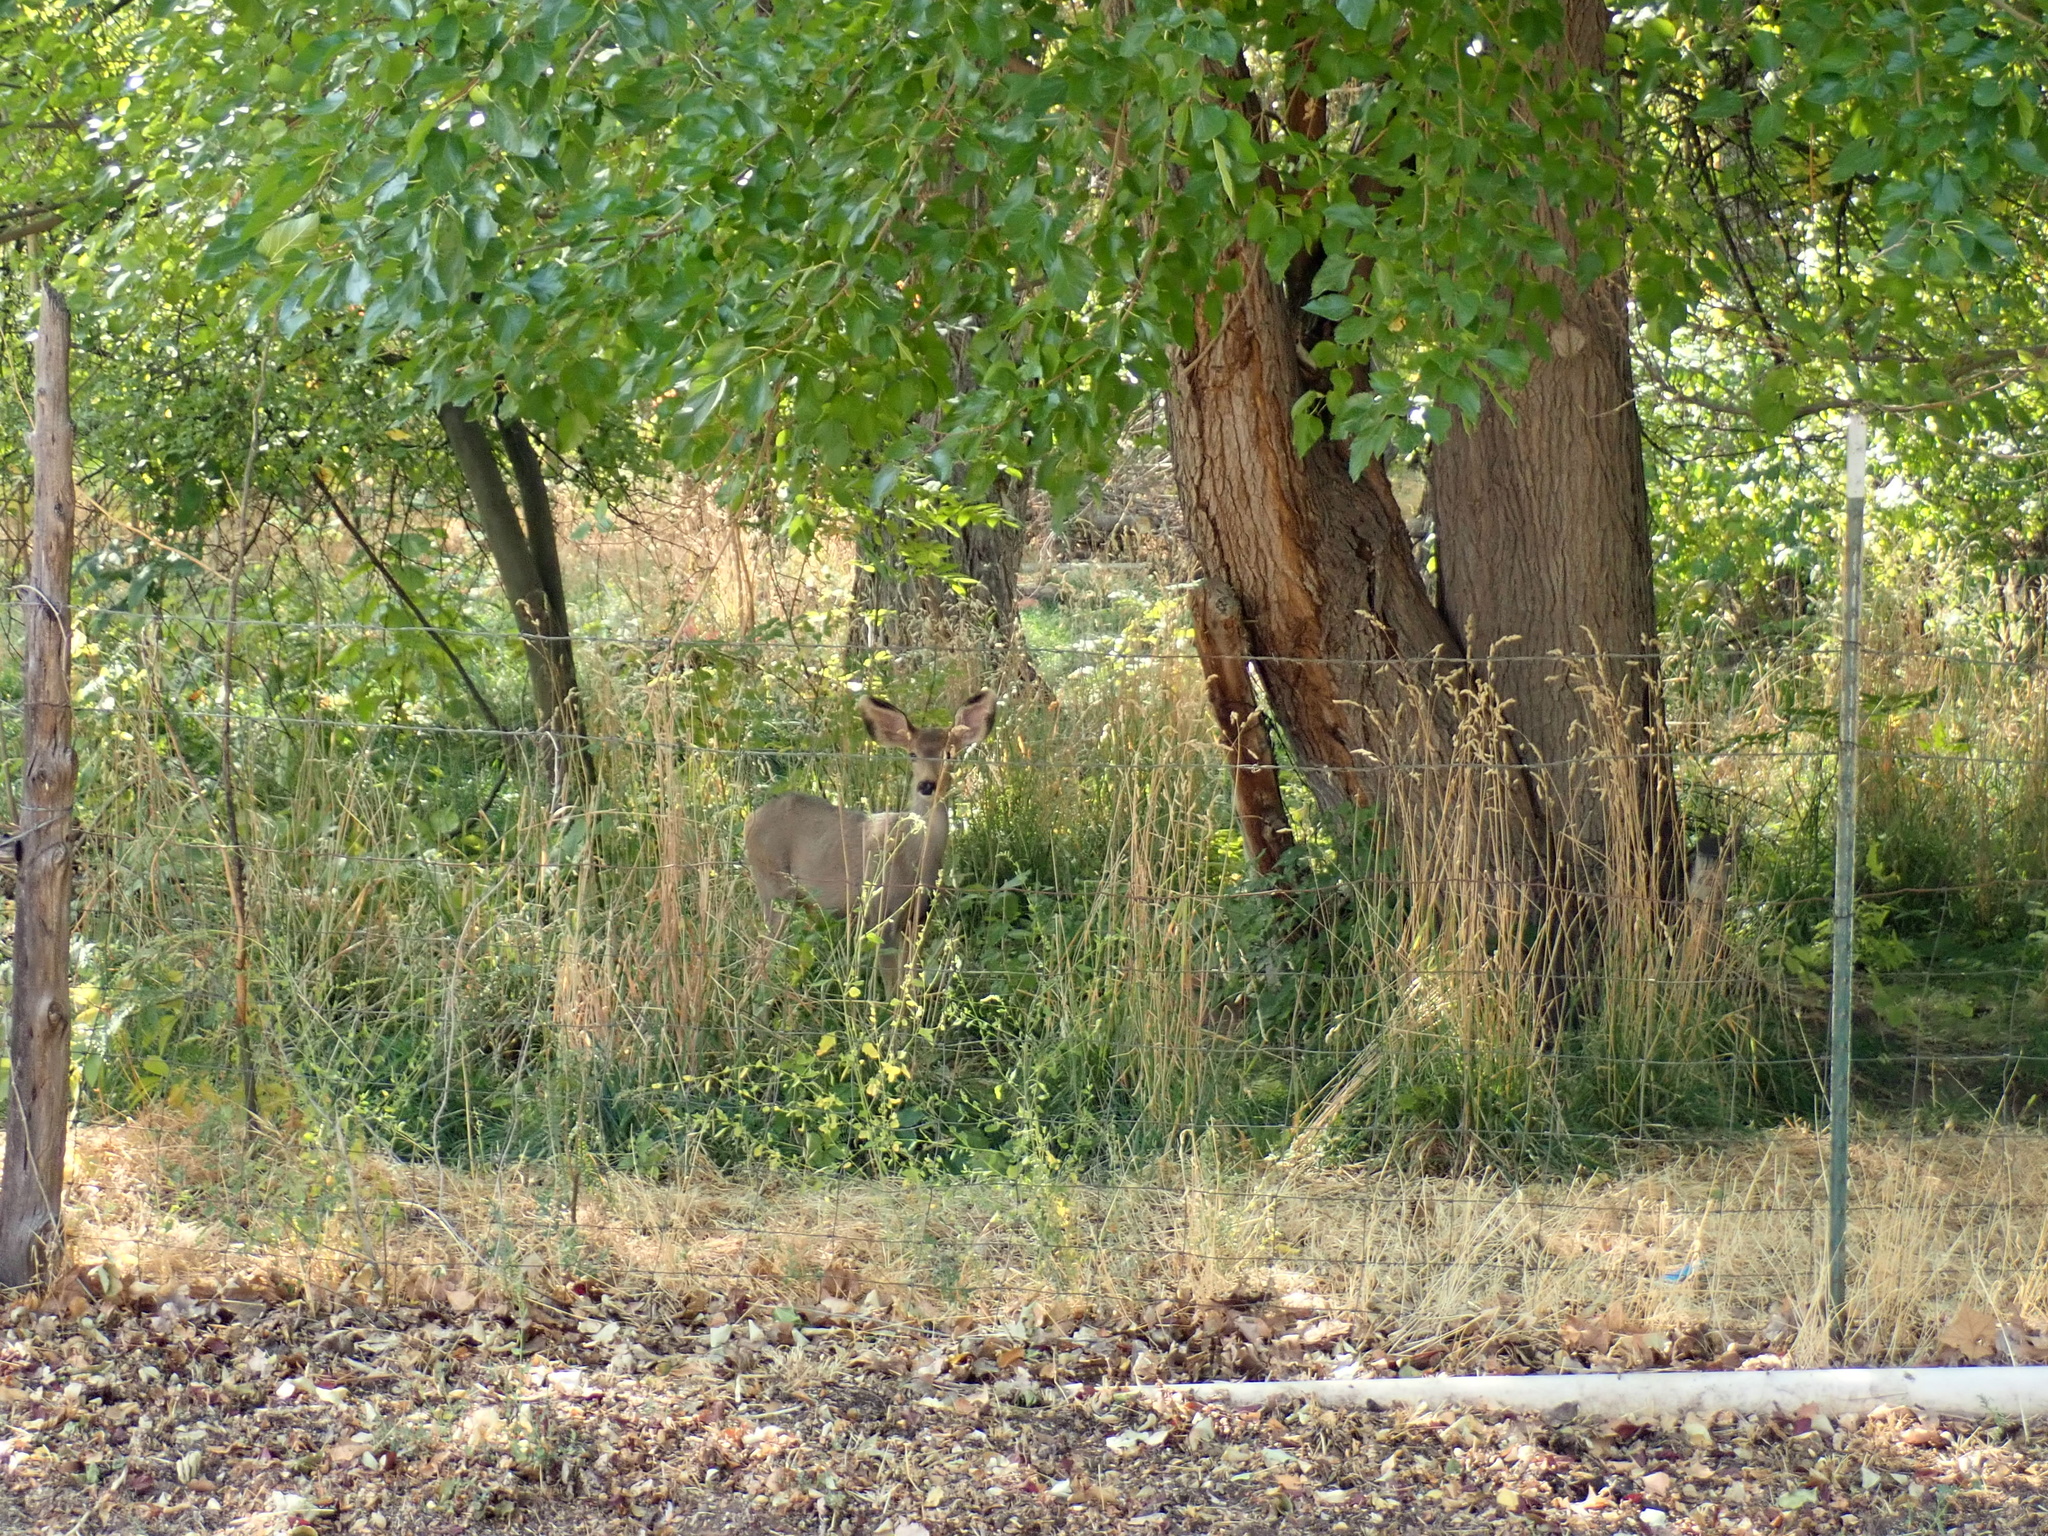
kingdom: Animalia
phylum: Chordata
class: Mammalia
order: Artiodactyla
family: Cervidae
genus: Odocoileus
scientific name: Odocoileus hemionus
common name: Mule deer
